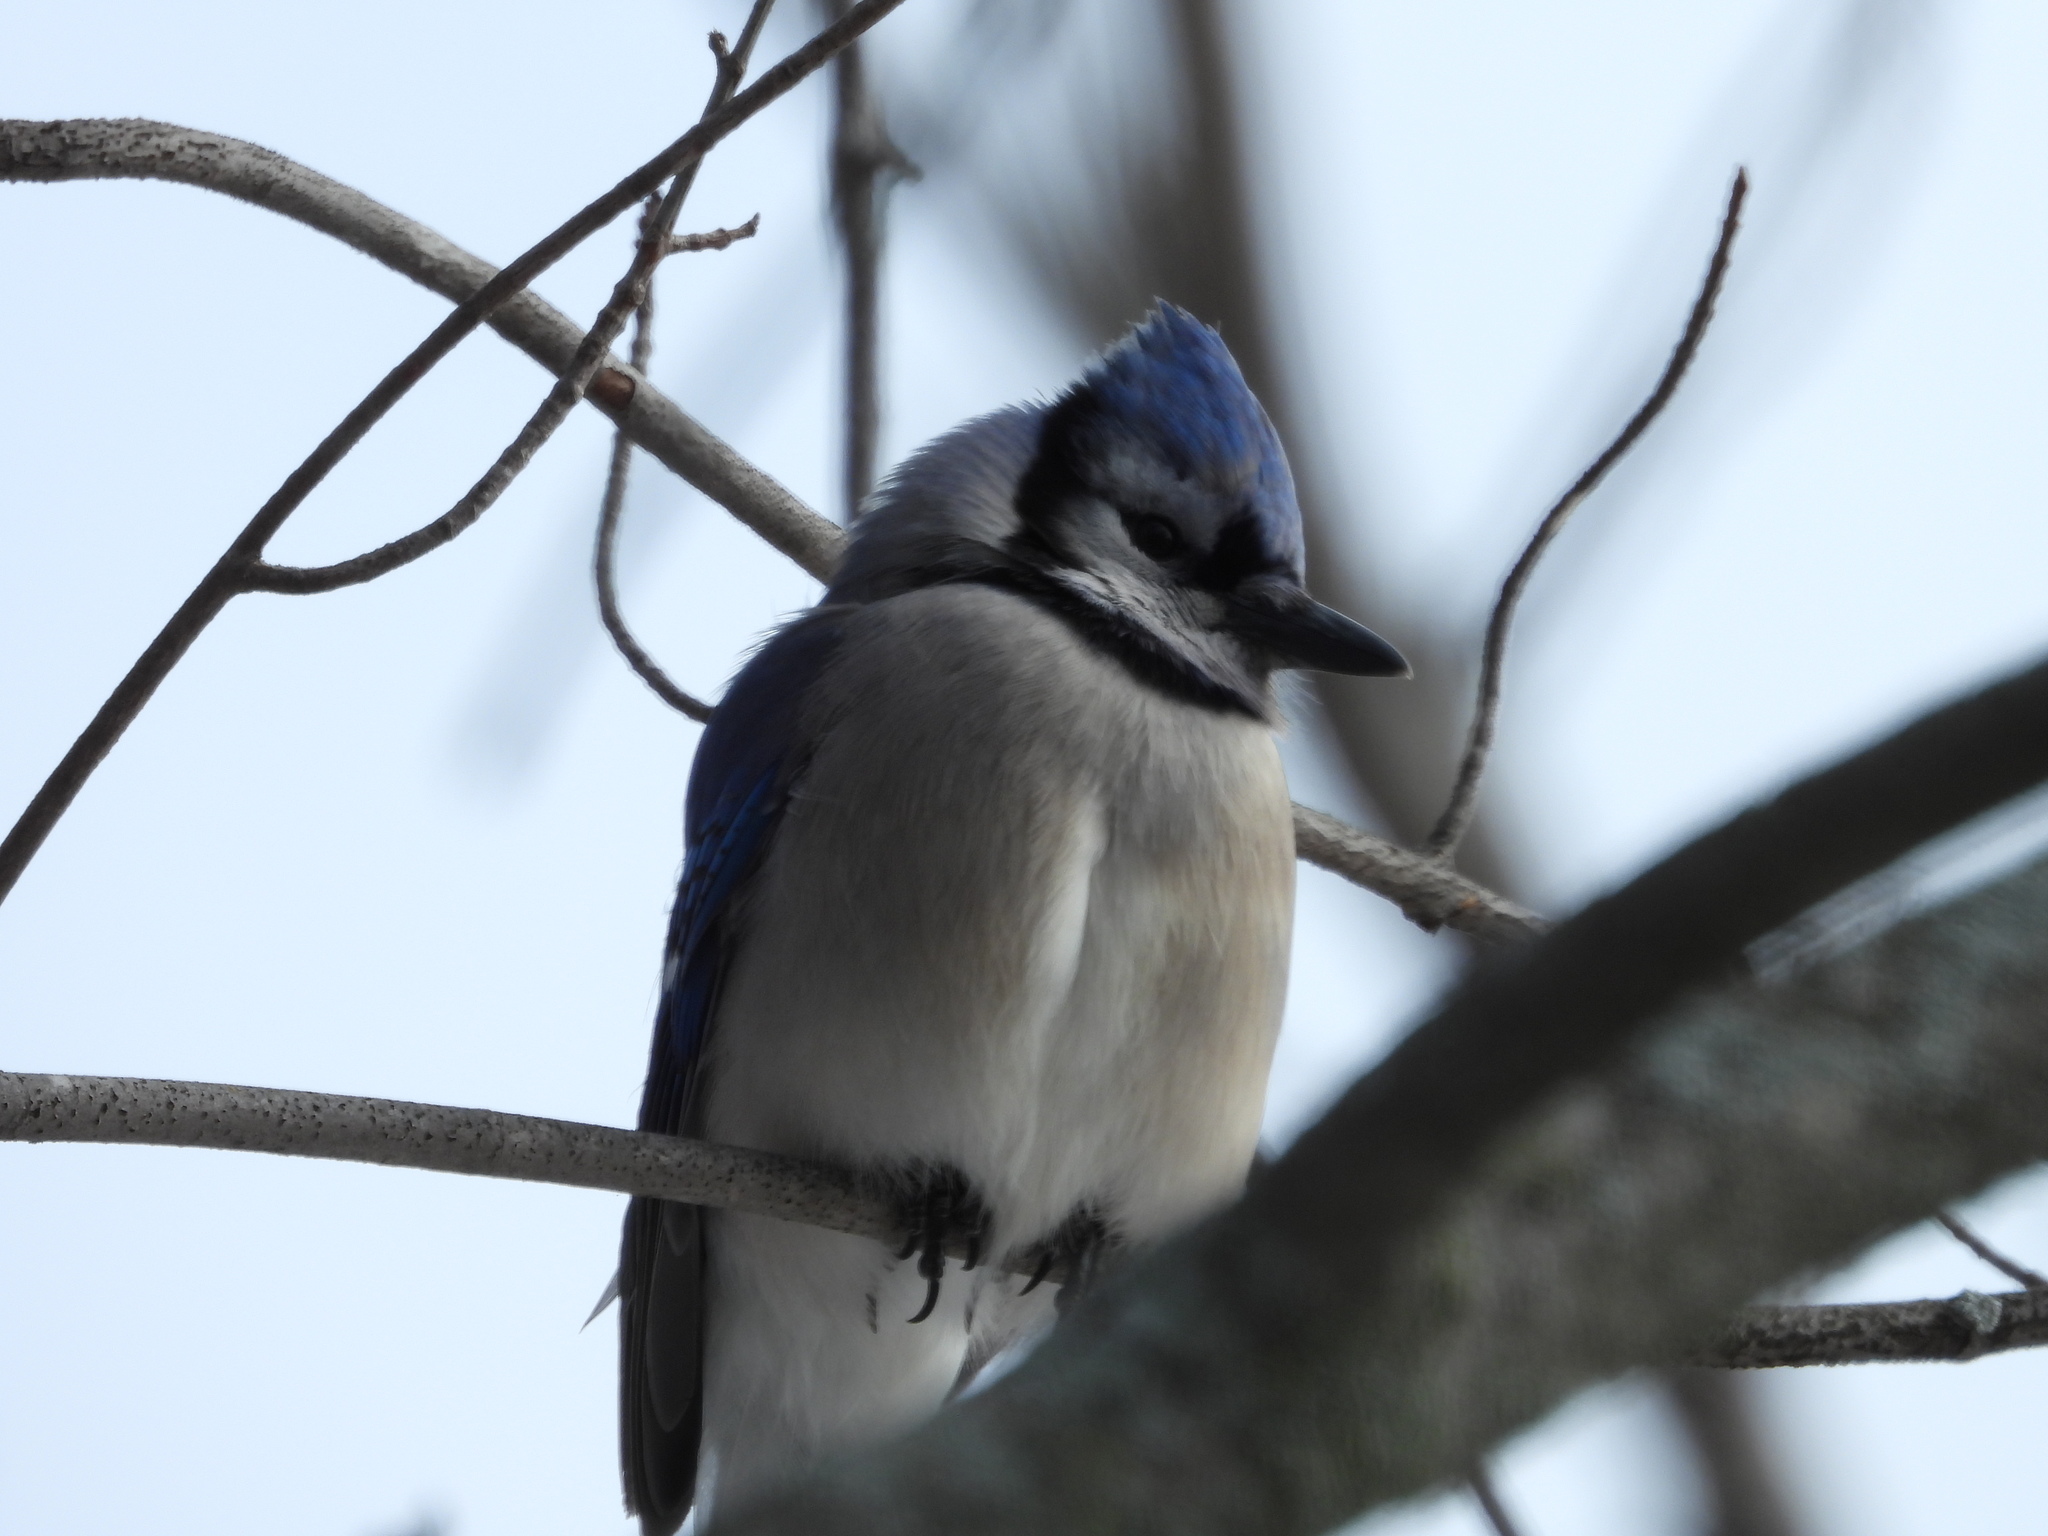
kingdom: Animalia
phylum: Chordata
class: Aves
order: Passeriformes
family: Corvidae
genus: Cyanocitta
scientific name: Cyanocitta cristata
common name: Blue jay
